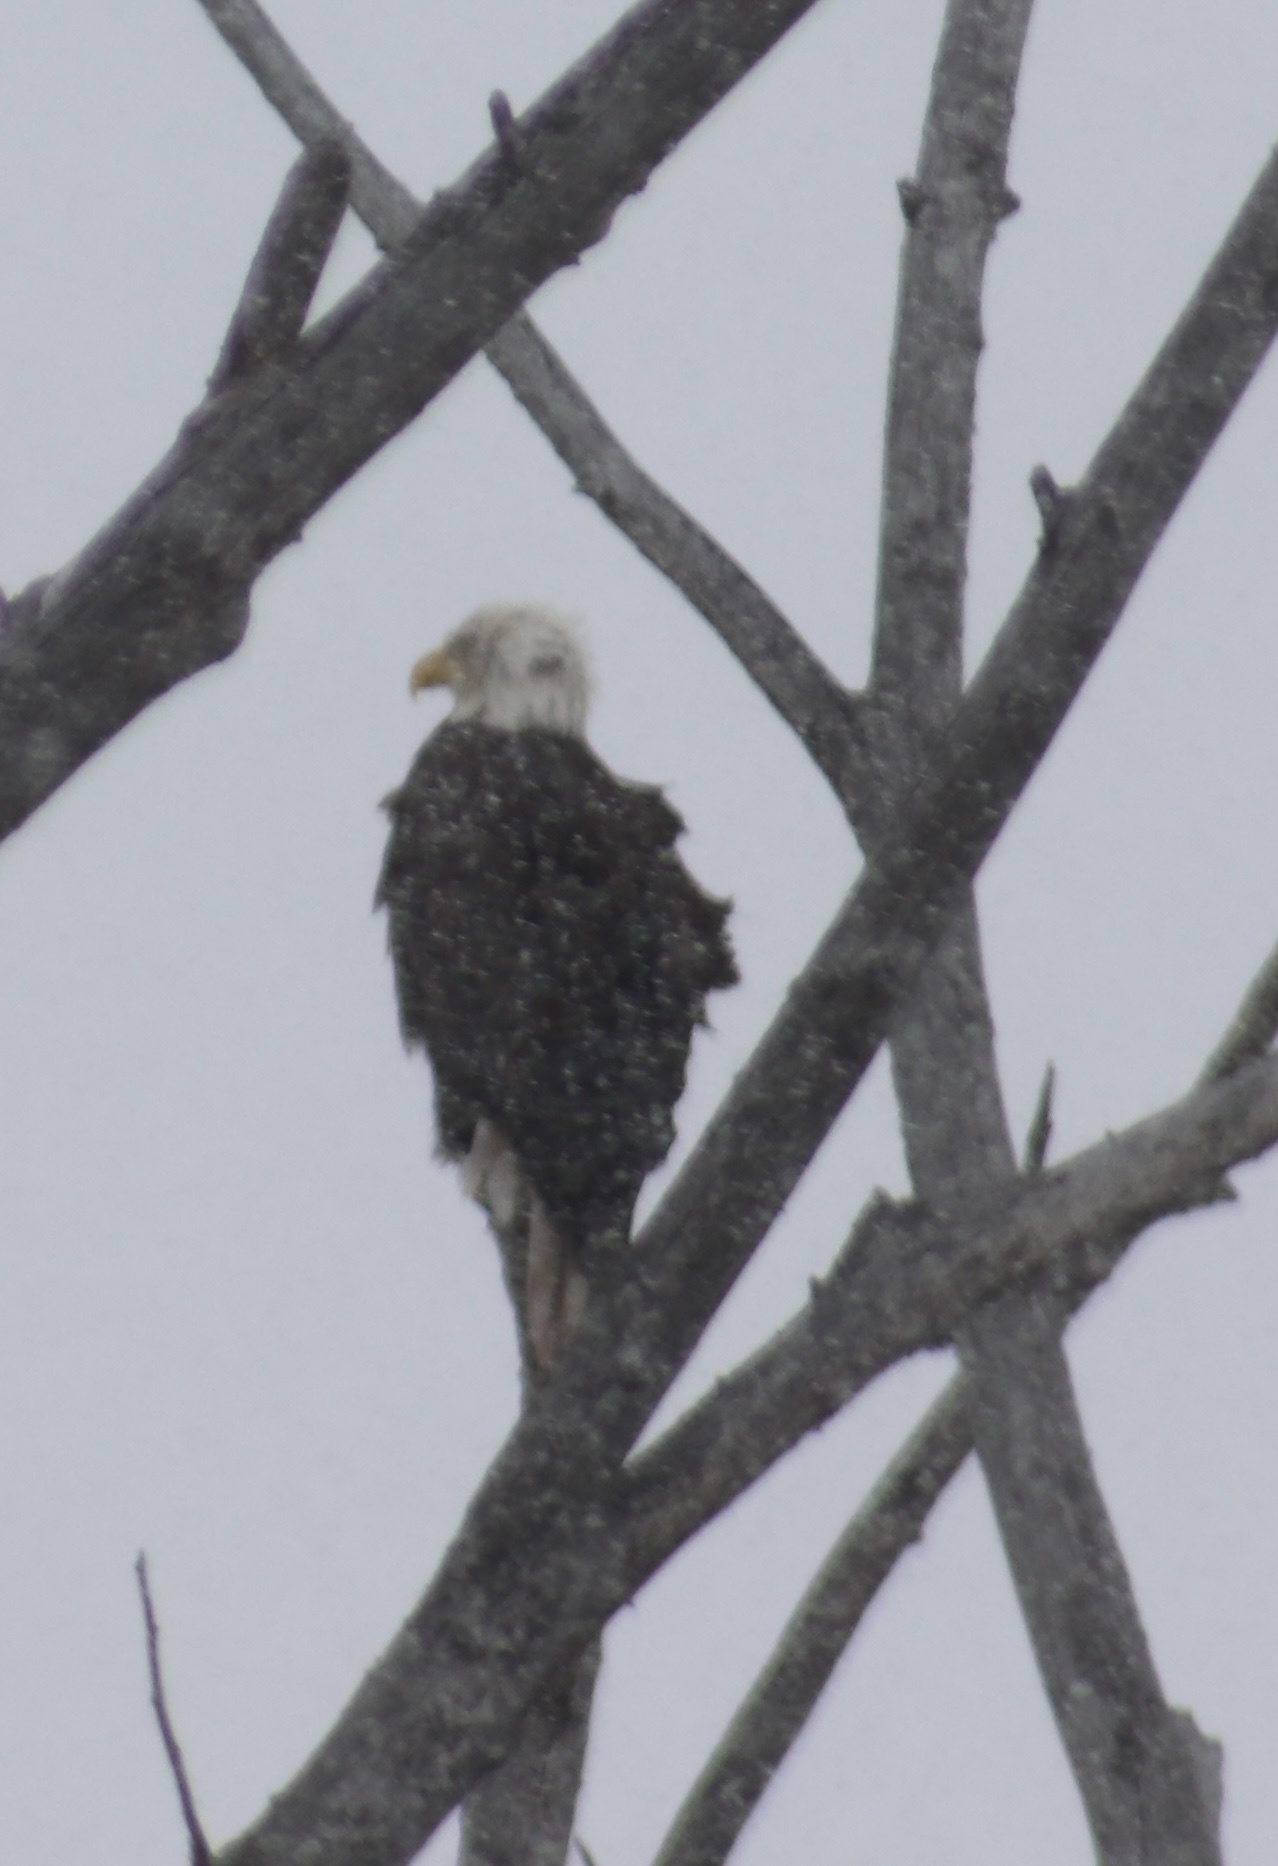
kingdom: Animalia
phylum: Chordata
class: Aves
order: Accipitriformes
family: Accipitridae
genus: Haliaeetus
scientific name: Haliaeetus leucocephalus
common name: Bald eagle
